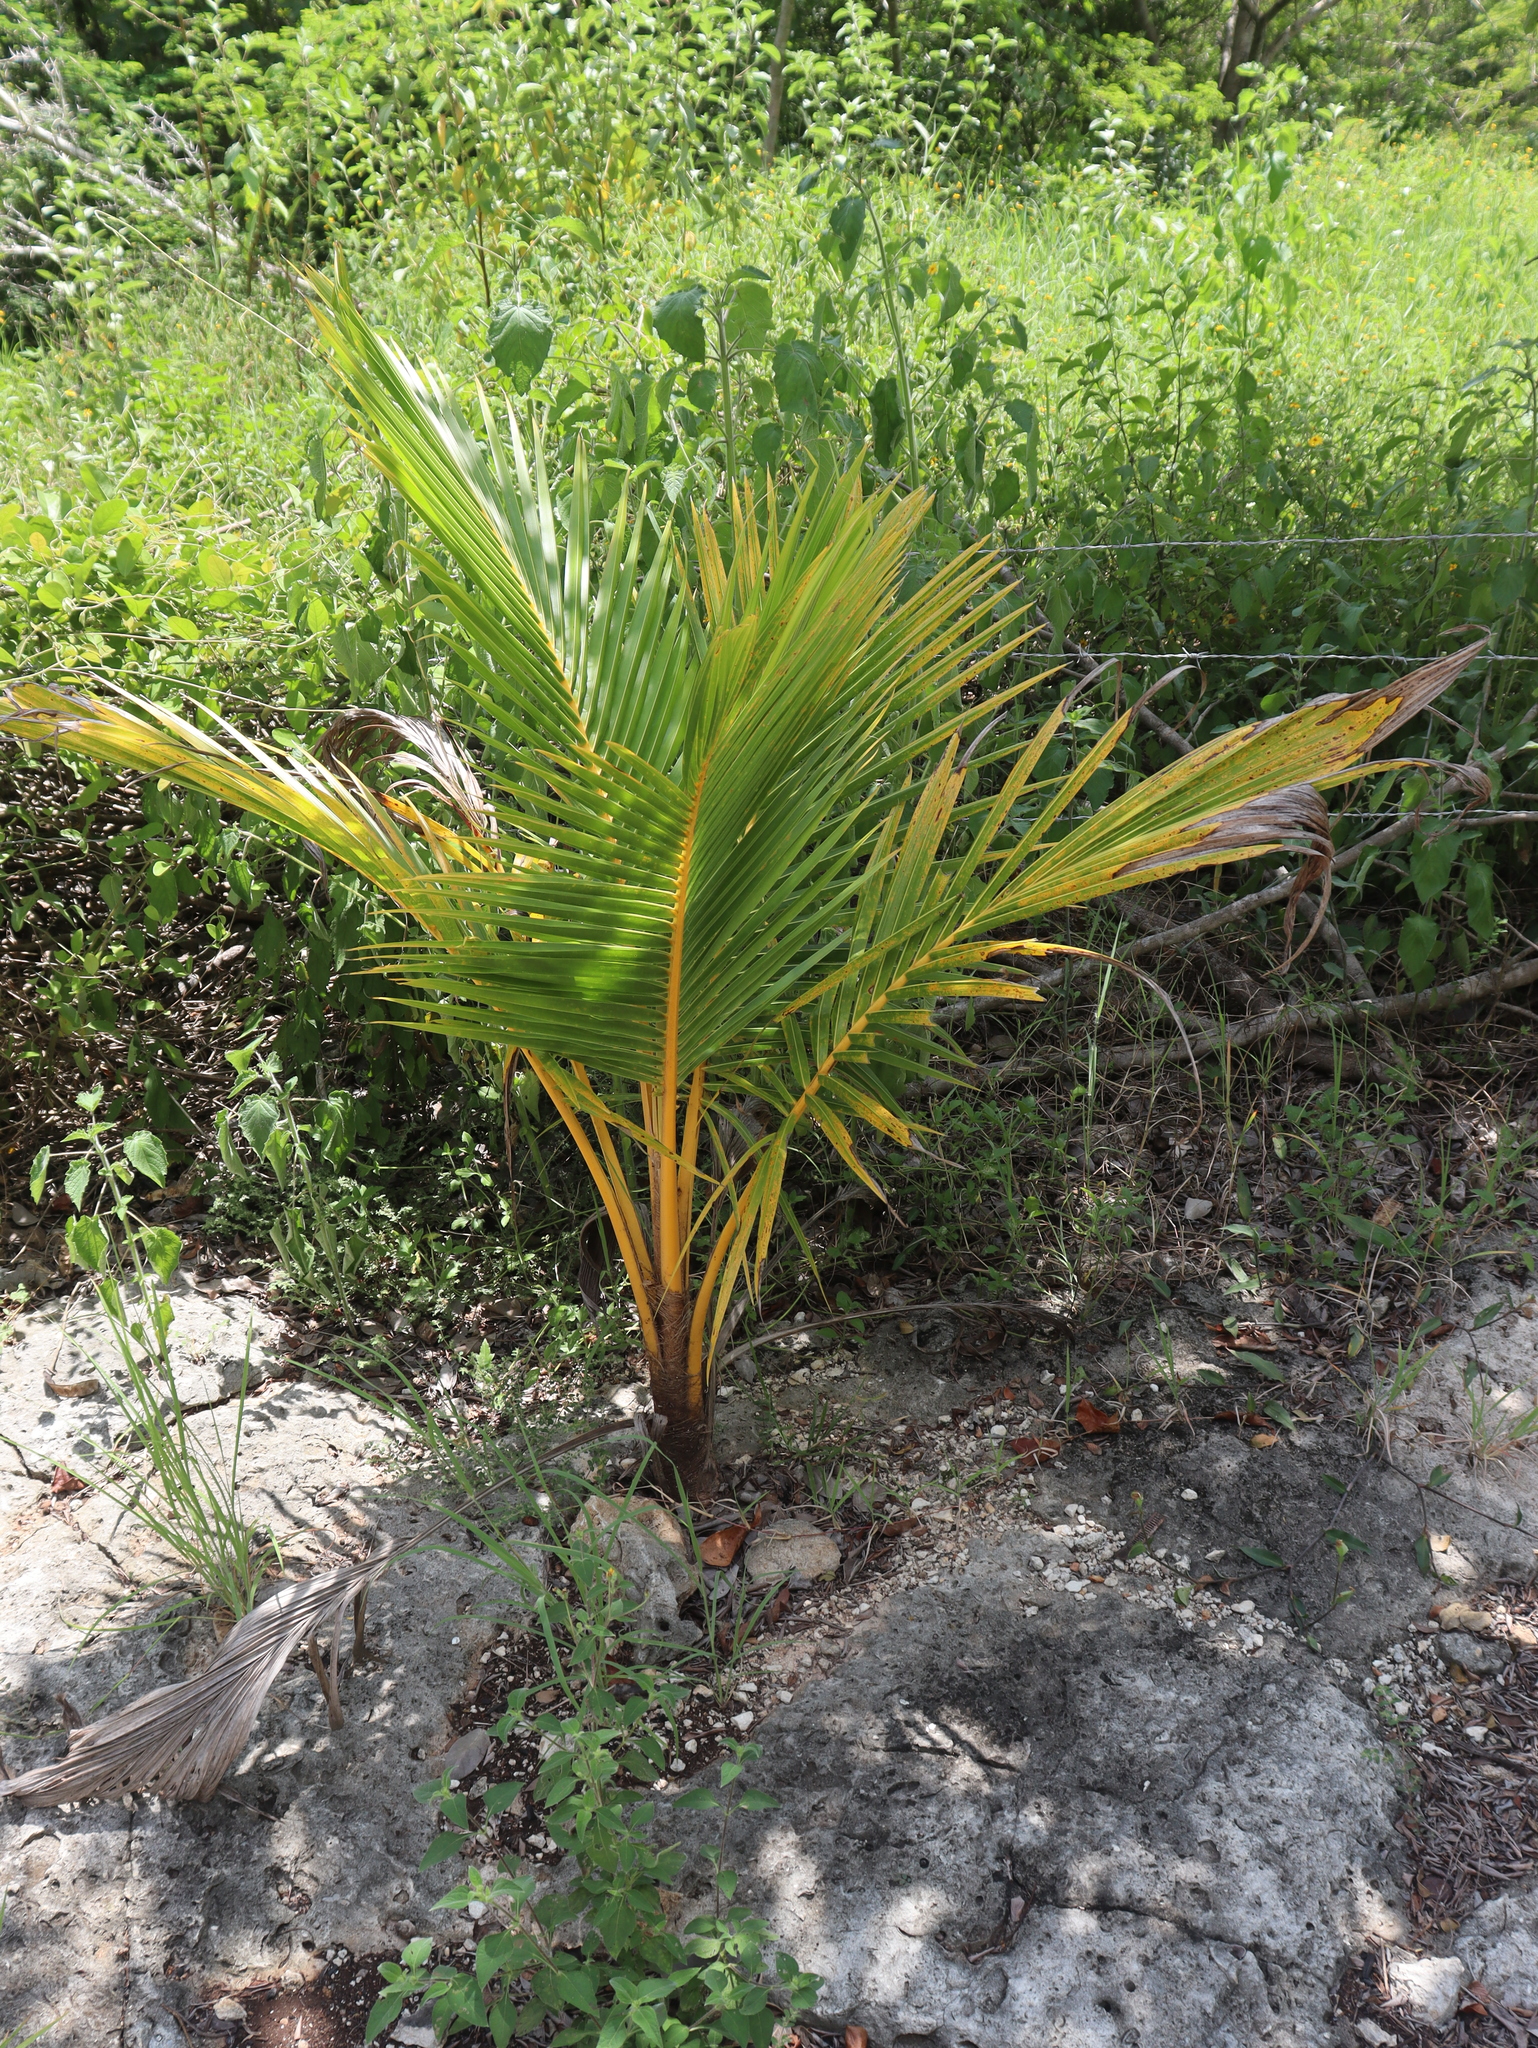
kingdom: Plantae
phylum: Tracheophyta
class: Liliopsida
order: Arecales
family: Arecaceae
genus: Cocos
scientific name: Cocos nucifera
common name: Coconut palm
